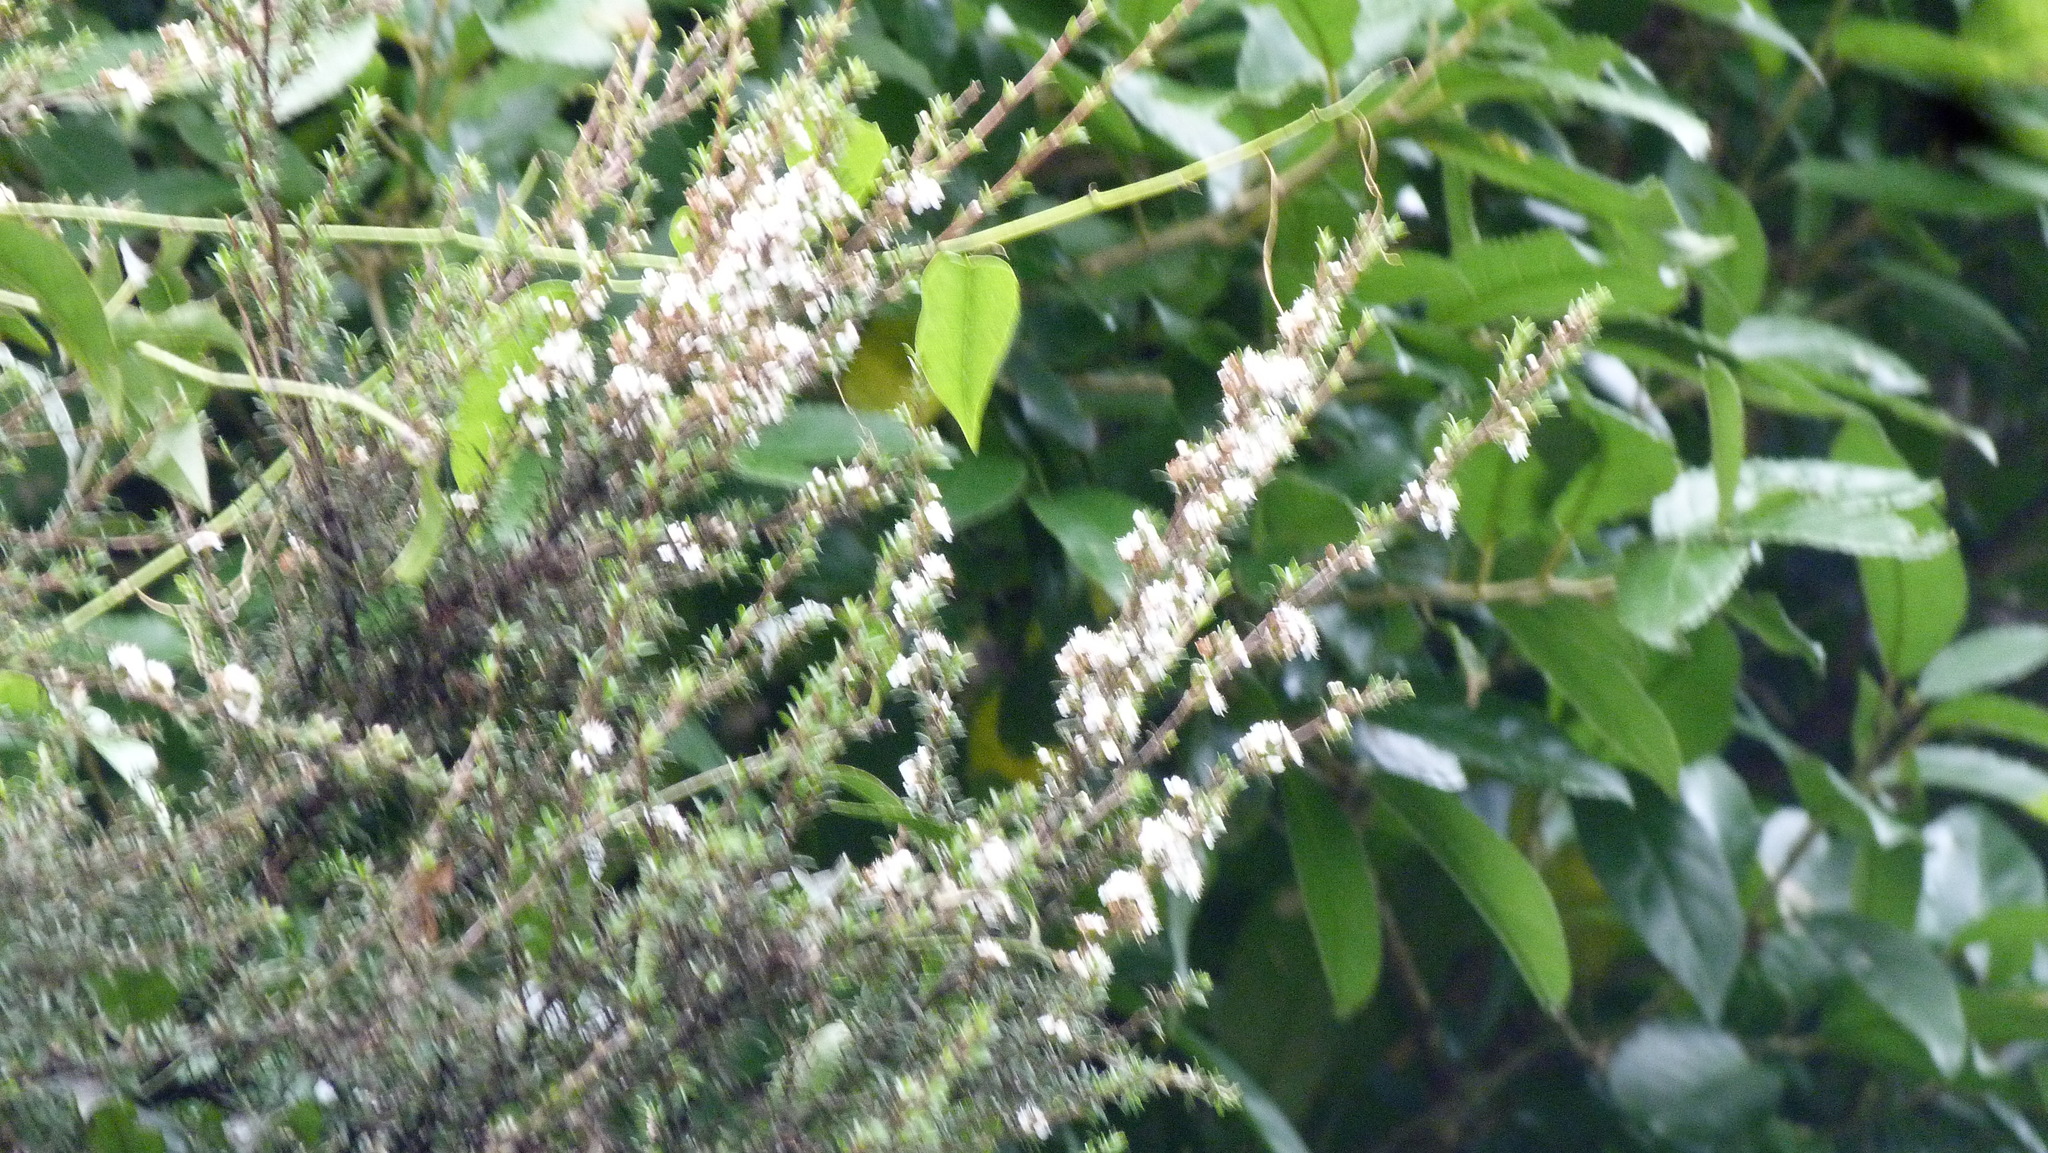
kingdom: Plantae
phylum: Tracheophyta
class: Magnoliopsida
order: Myrtales
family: Myrtaceae
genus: Kunzea
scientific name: Kunzea robusta
